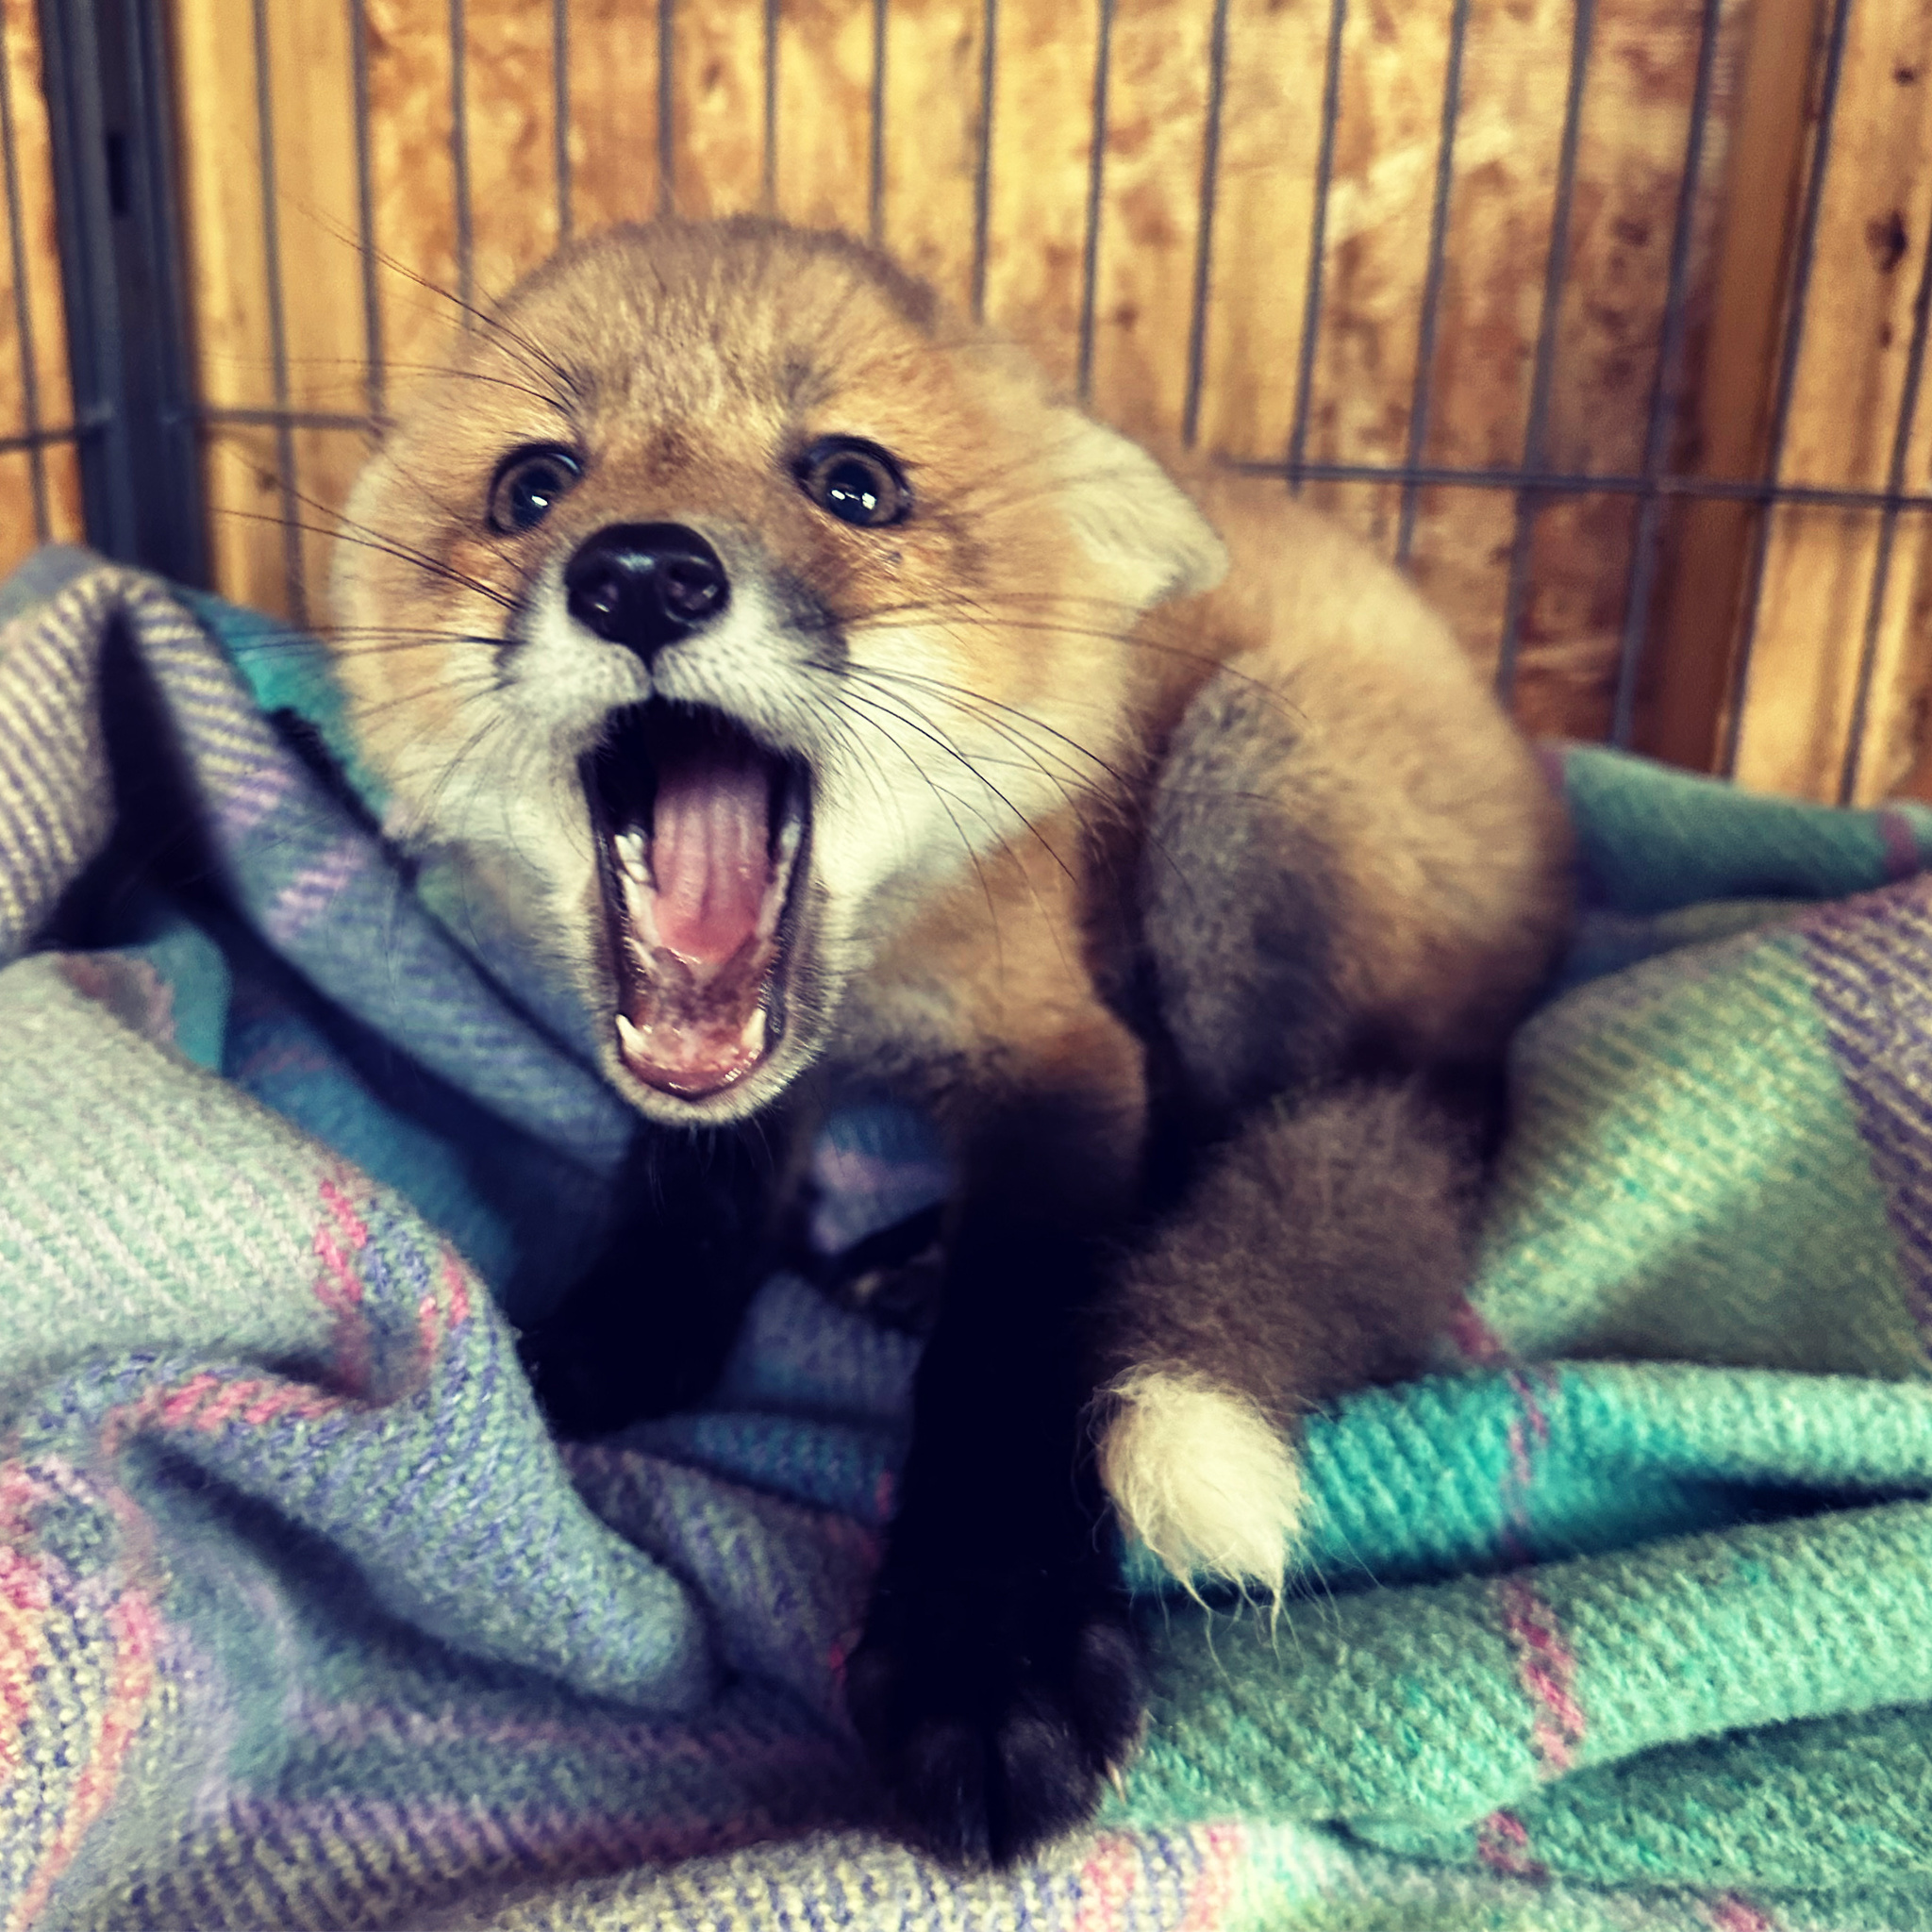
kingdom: Animalia
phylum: Chordata
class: Mammalia
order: Carnivora
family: Canidae
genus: Vulpes
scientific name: Vulpes vulpes
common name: Red fox
